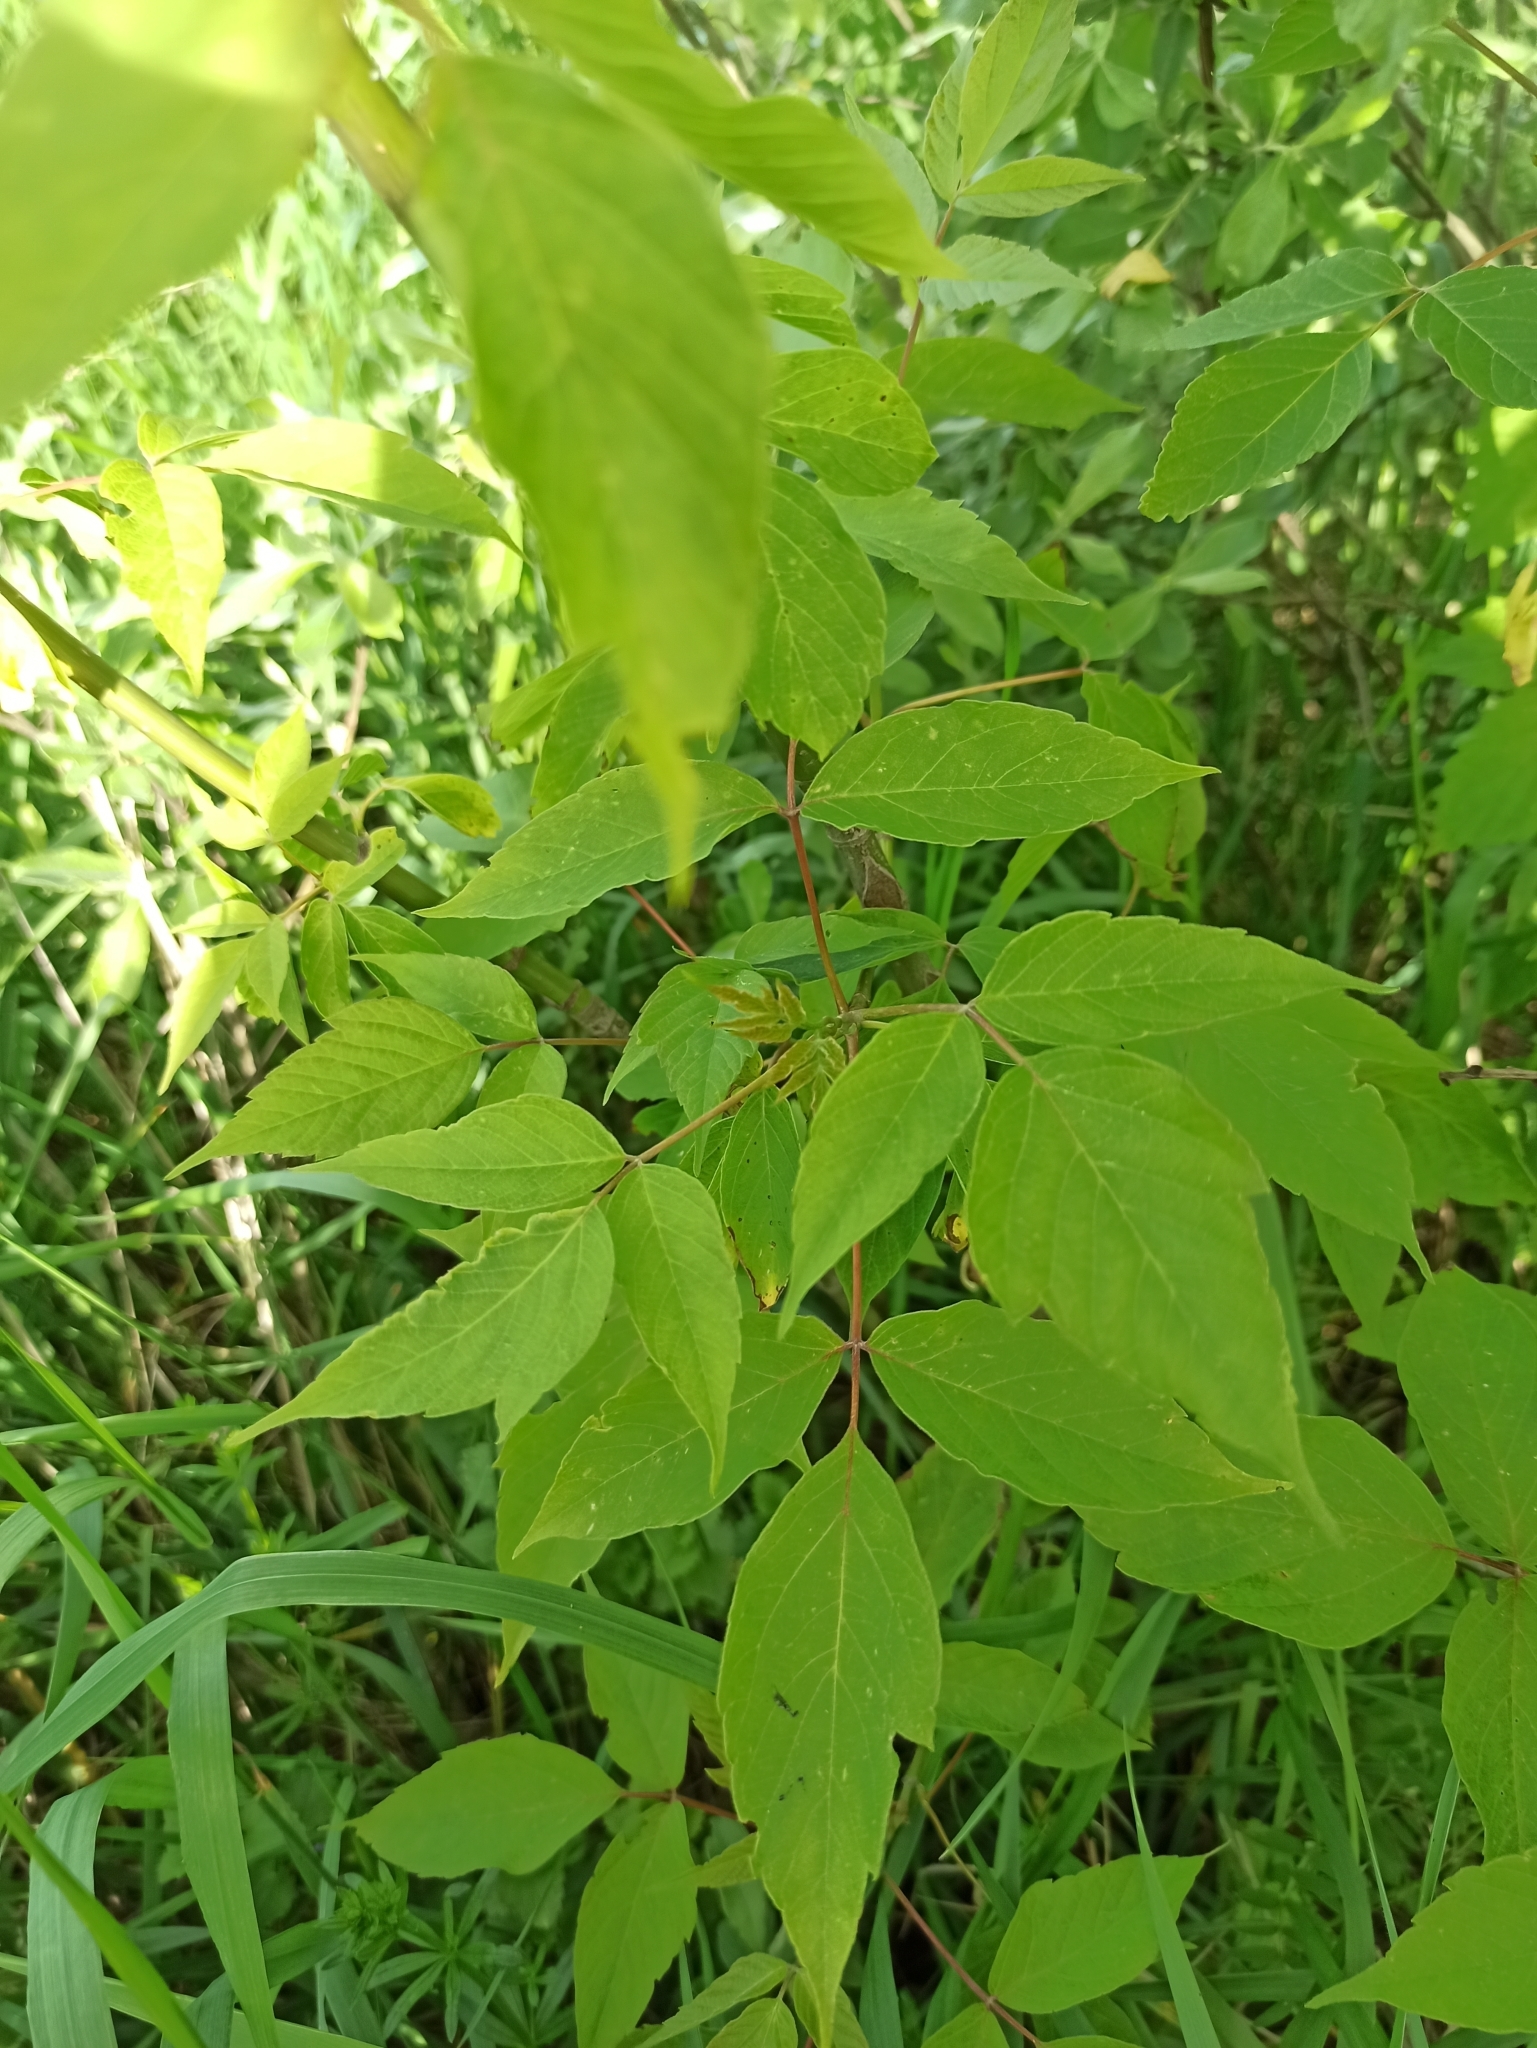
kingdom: Plantae
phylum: Tracheophyta
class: Magnoliopsida
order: Sapindales
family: Sapindaceae
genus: Acer
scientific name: Acer negundo
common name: Ashleaf maple
